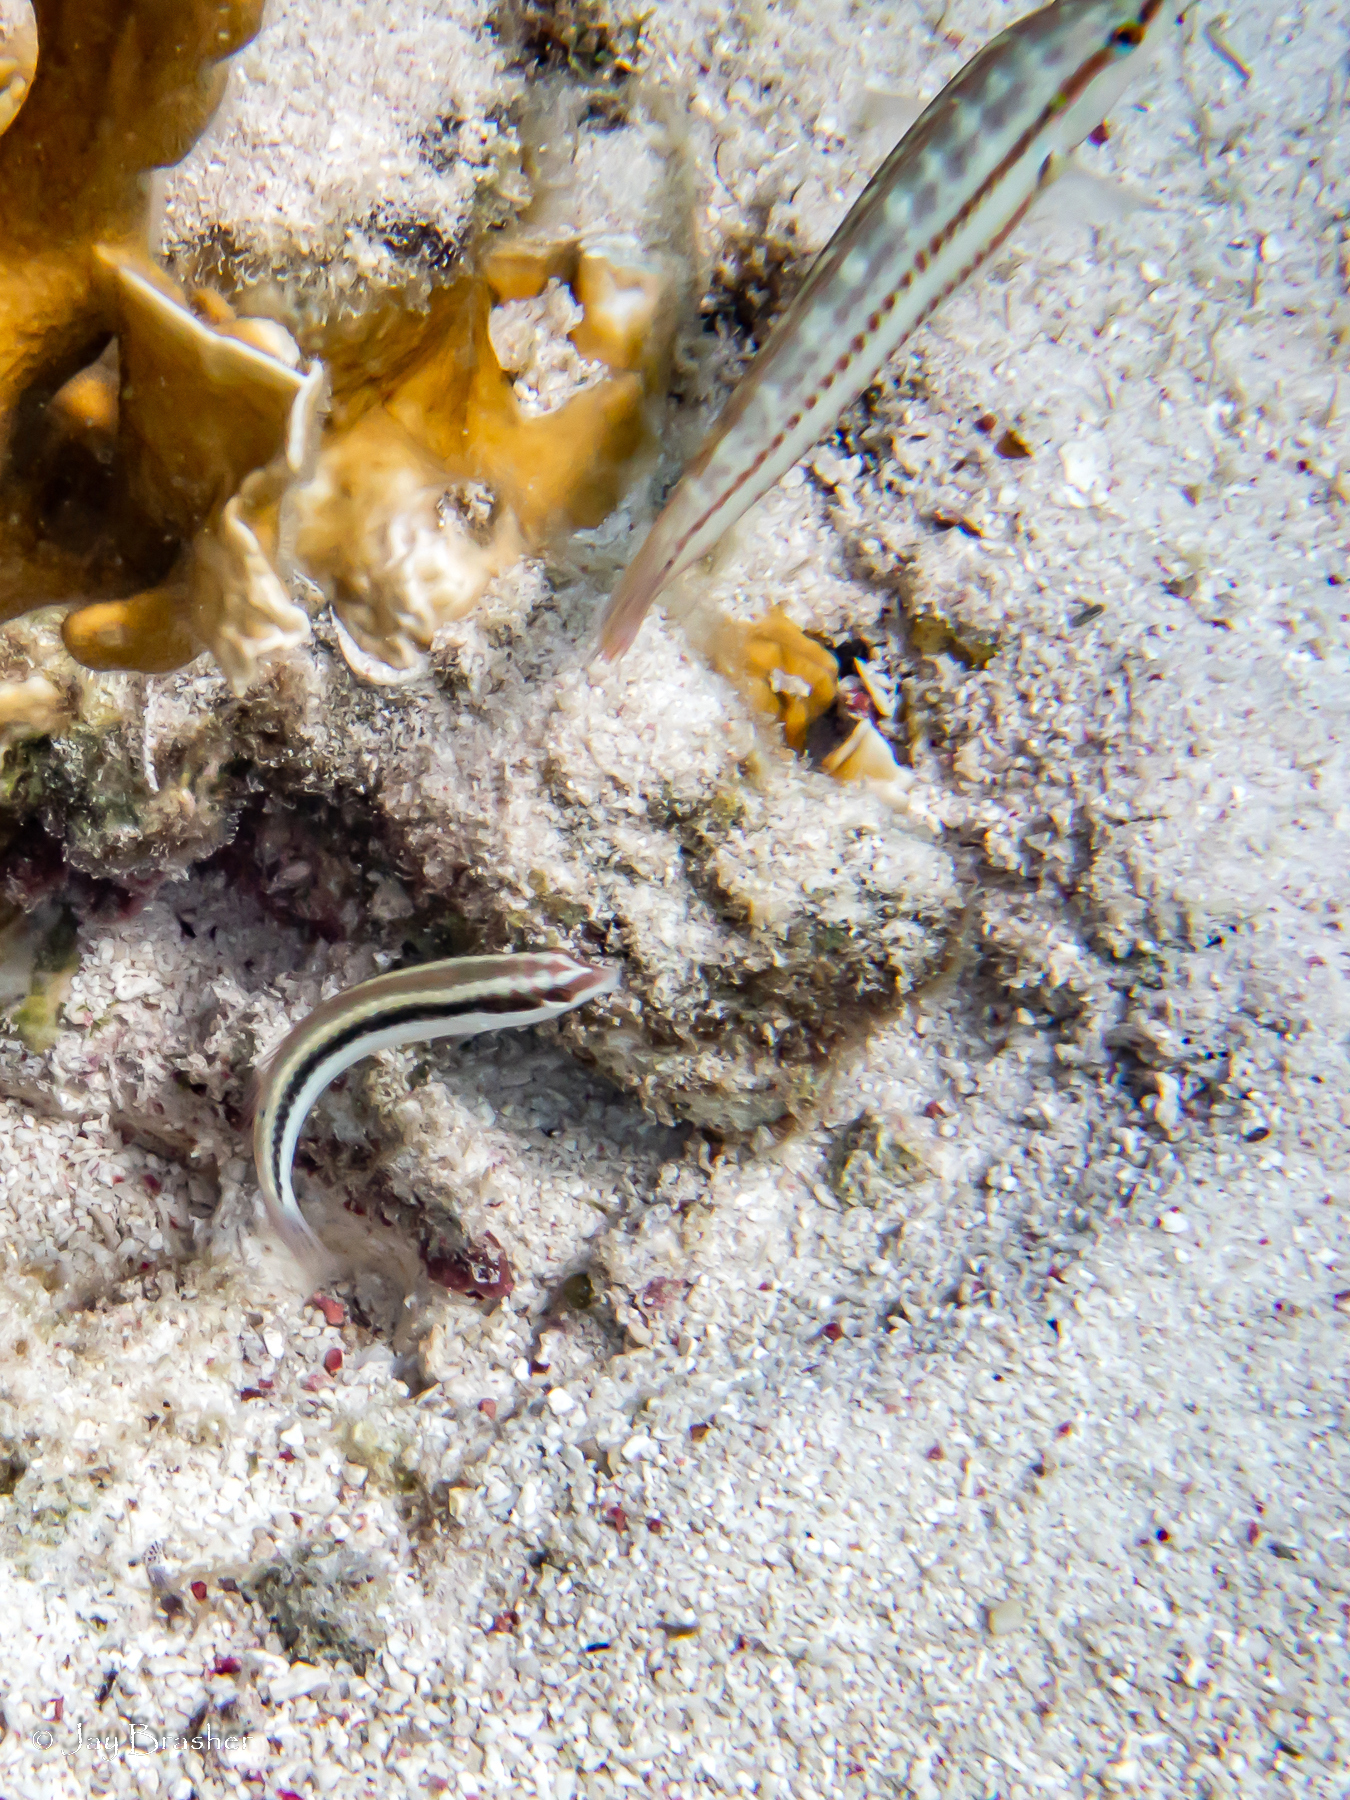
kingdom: Animalia
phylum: Chordata
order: Perciformes
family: Labridae
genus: Halichoeres
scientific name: Halichoeres bivittatus
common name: Slippery dick
